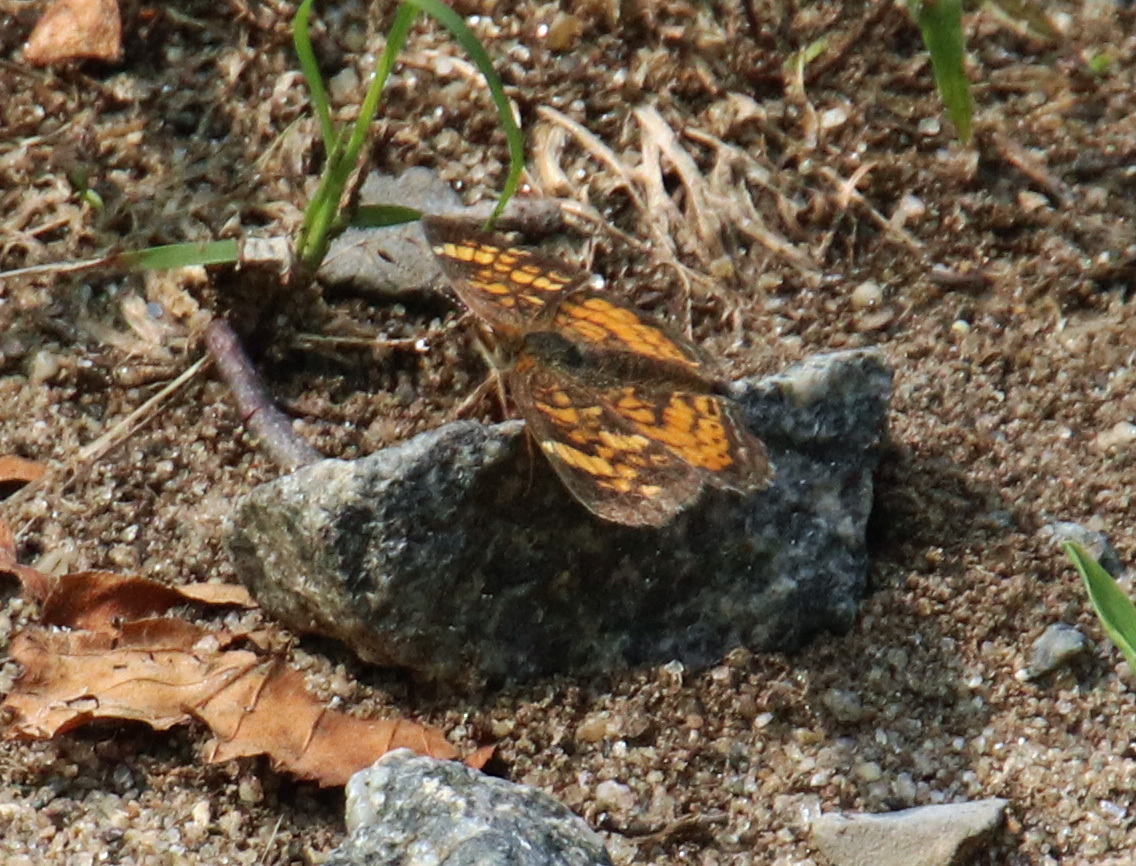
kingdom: Animalia
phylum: Arthropoda
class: Insecta
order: Lepidoptera
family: Nymphalidae
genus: Phyciodes
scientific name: Phyciodes tharos
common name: Pearl crescent
